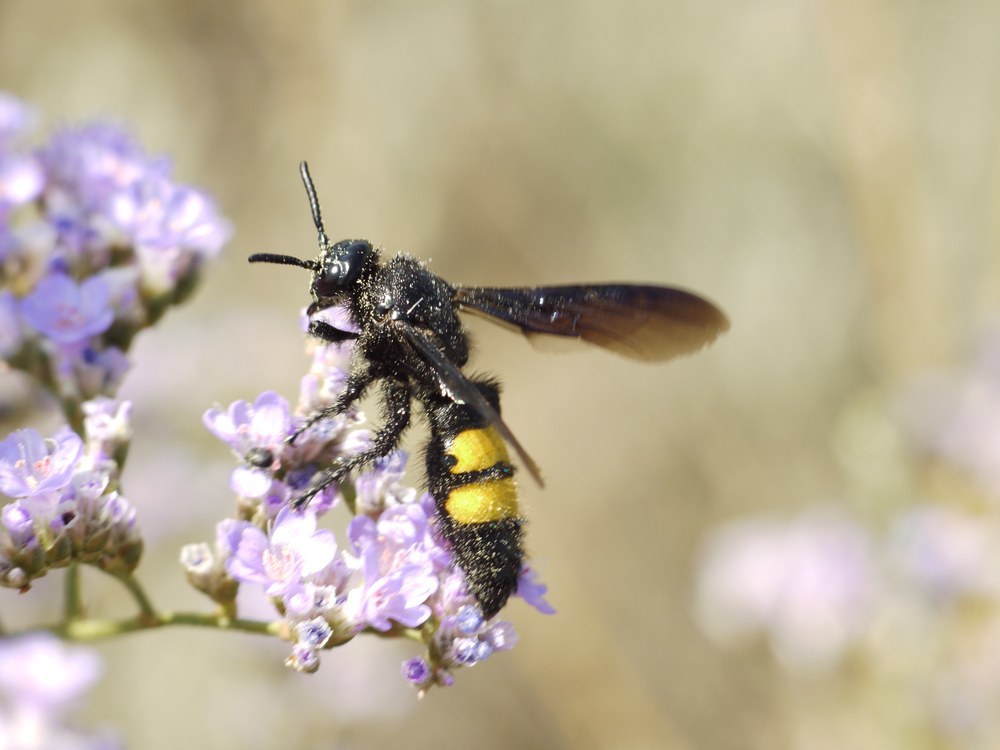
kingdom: Animalia
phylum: Arthropoda
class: Insecta
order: Hymenoptera
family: Scoliidae
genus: Scolia
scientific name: Scolia hirta
